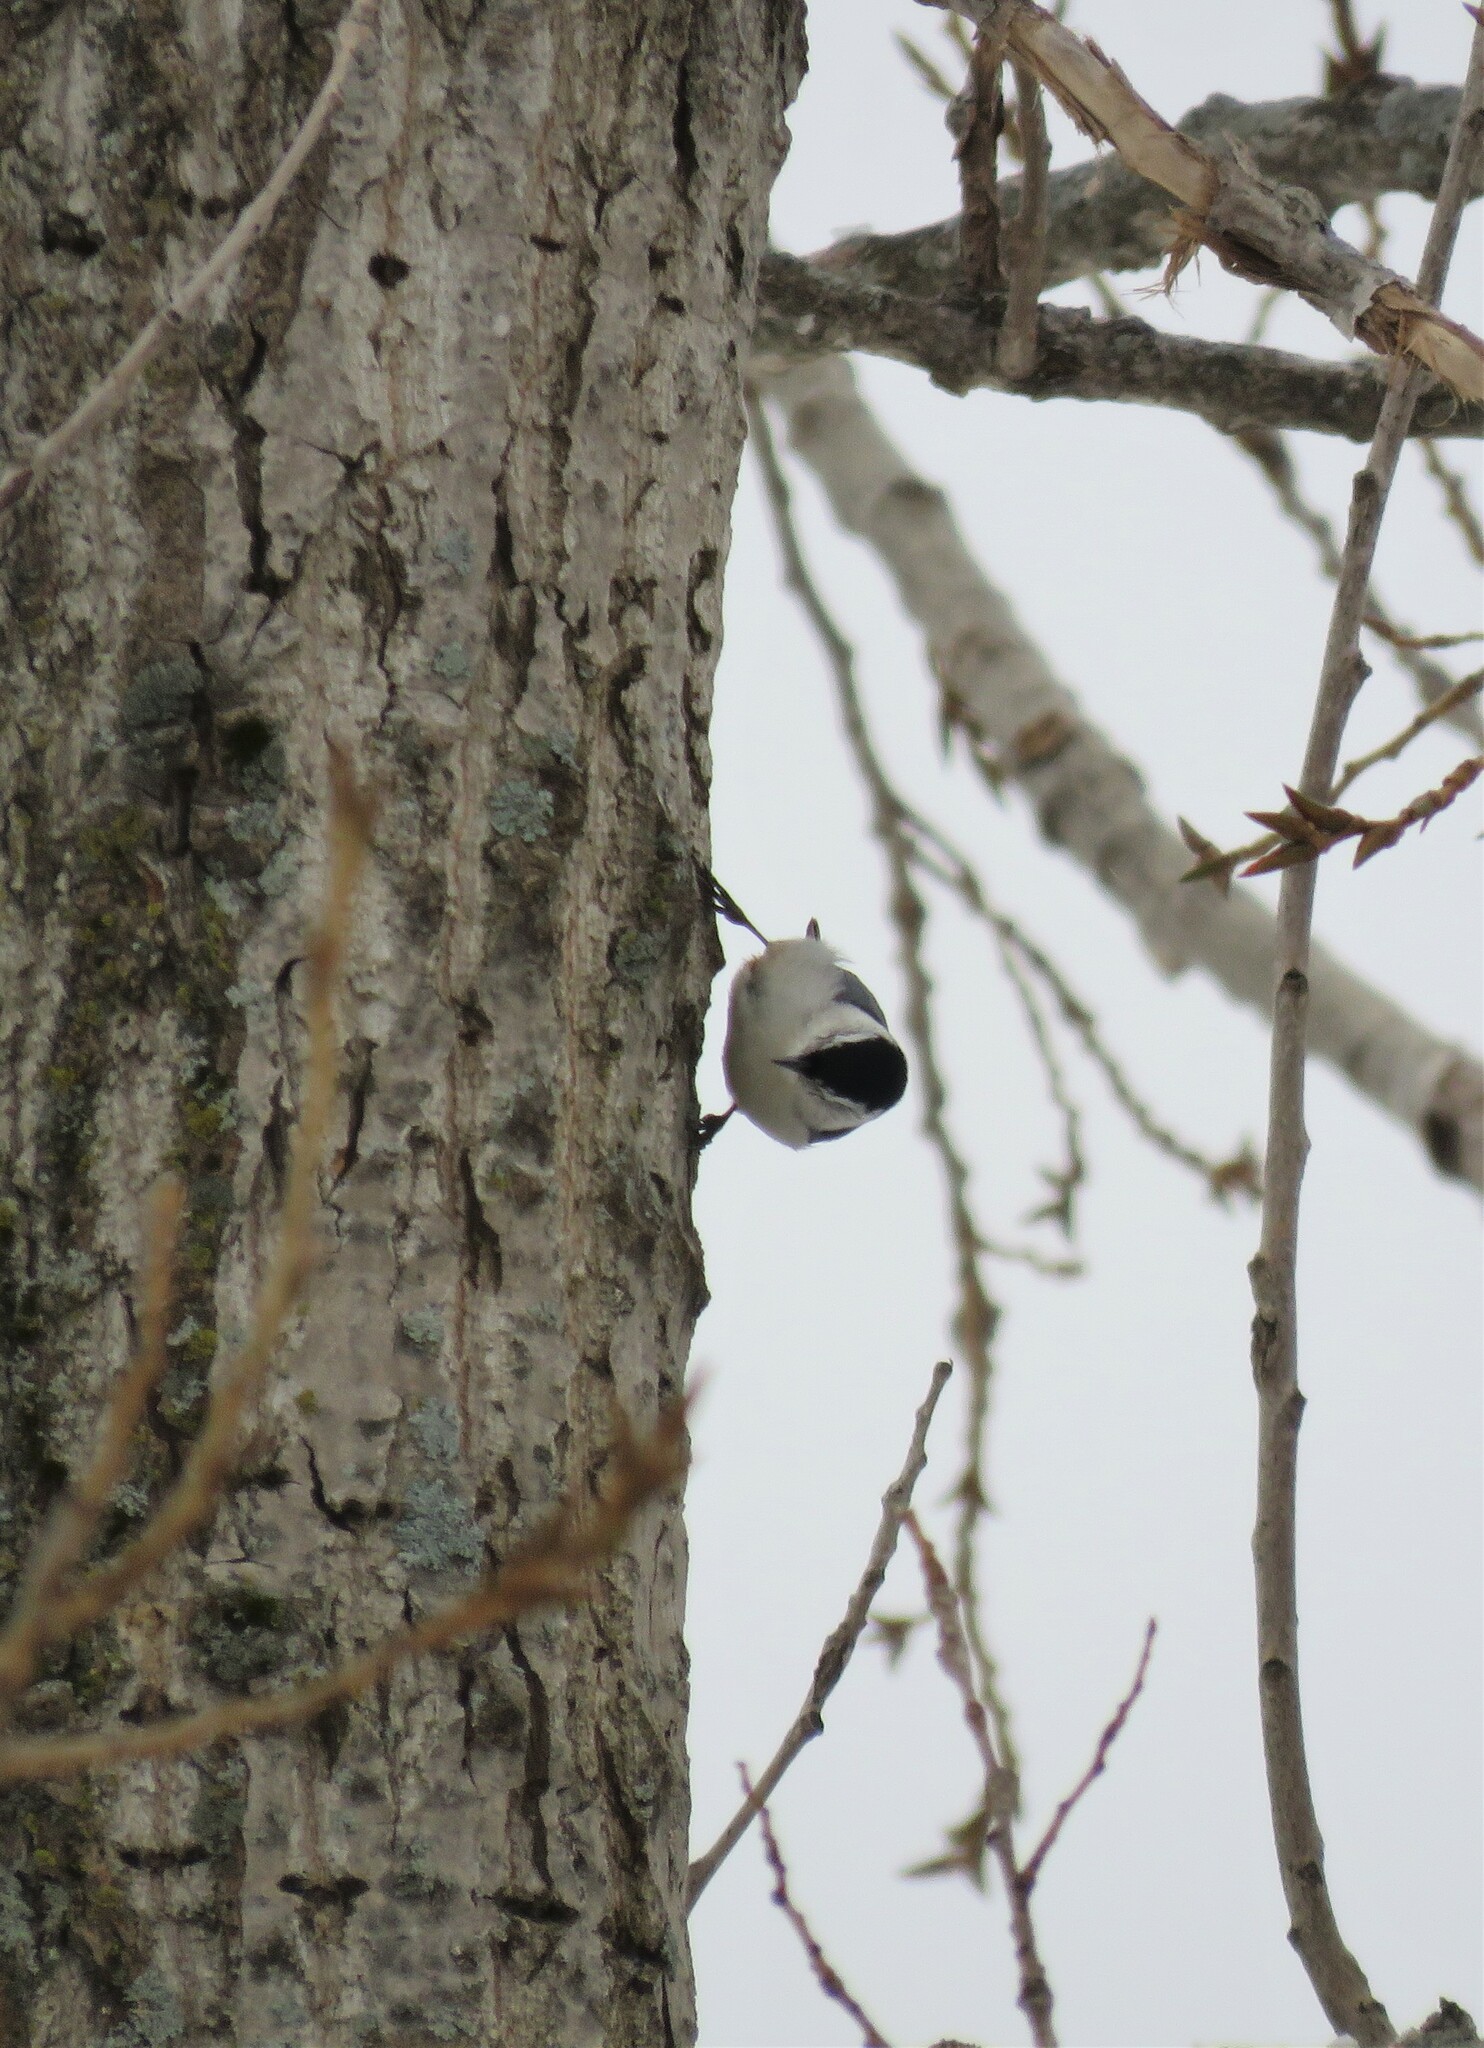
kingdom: Animalia
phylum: Chordata
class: Aves
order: Passeriformes
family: Sittidae
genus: Sitta
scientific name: Sitta carolinensis
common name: White-breasted nuthatch
